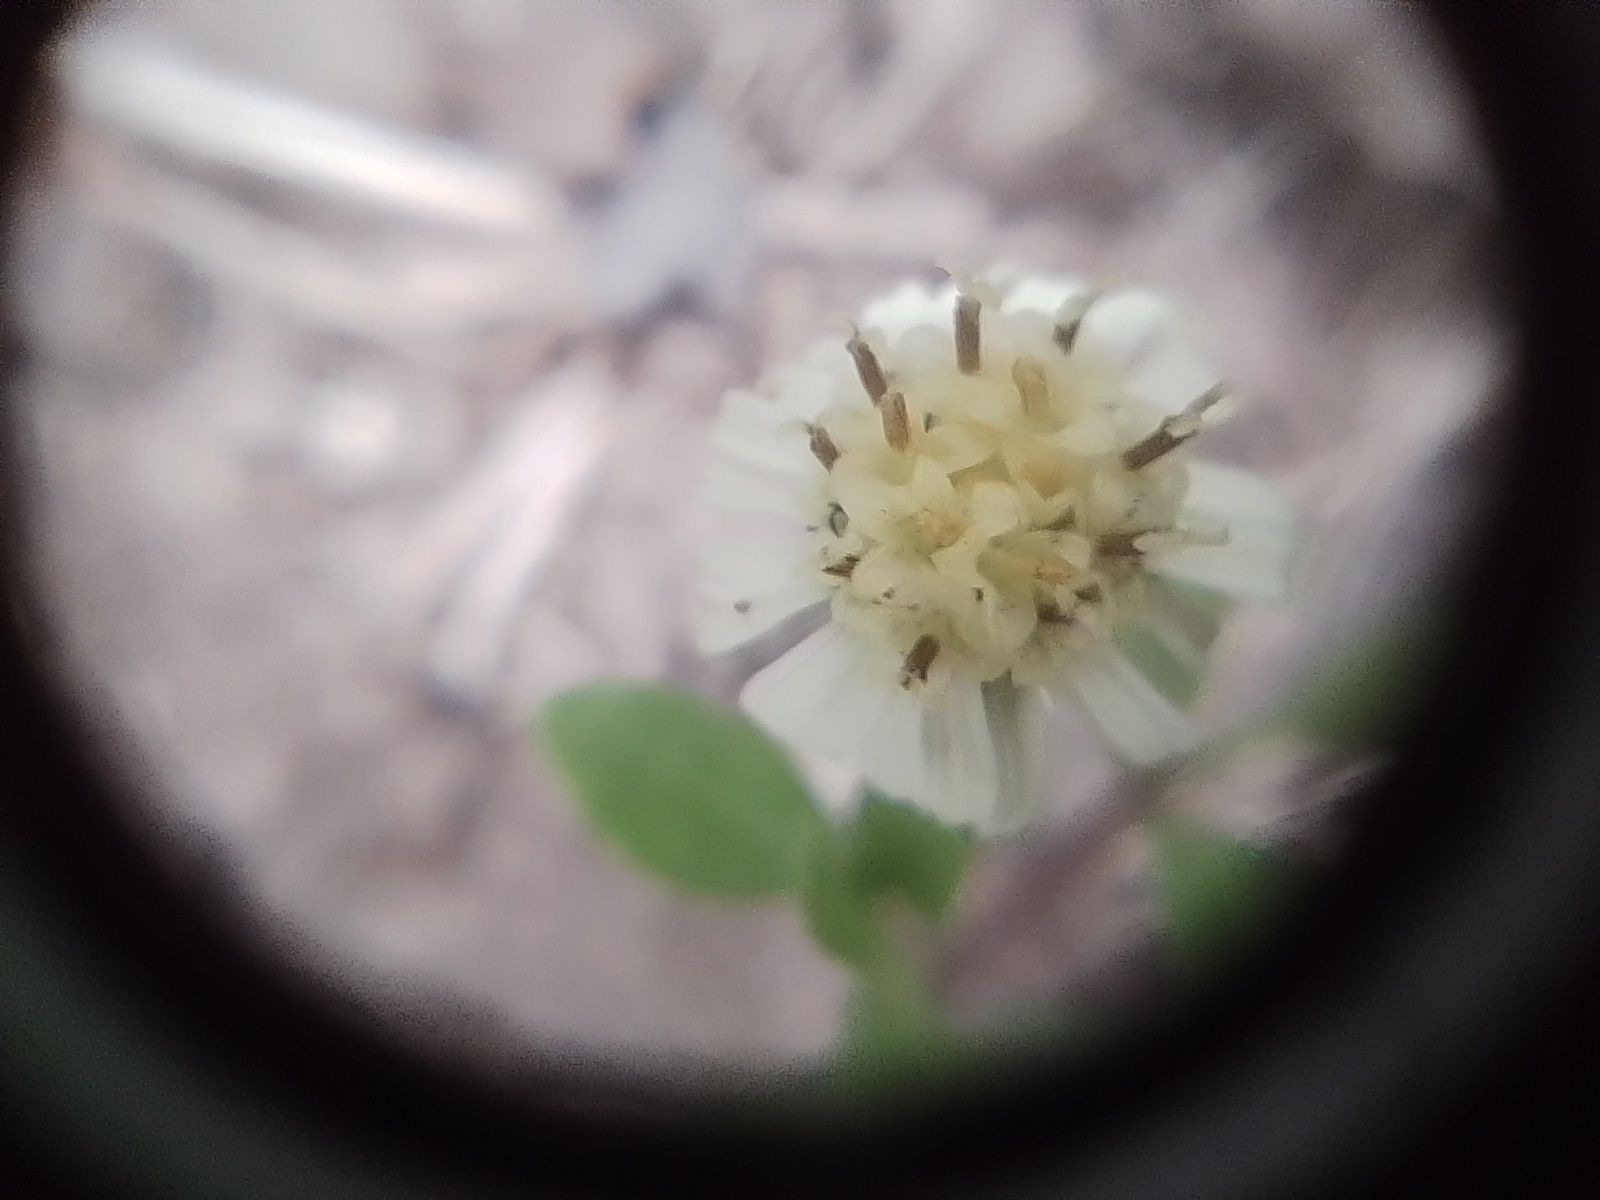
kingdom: Plantae
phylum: Tracheophyta
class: Magnoliopsida
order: Asterales
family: Asteraceae
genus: Eclipta
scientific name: Eclipta elliptica
